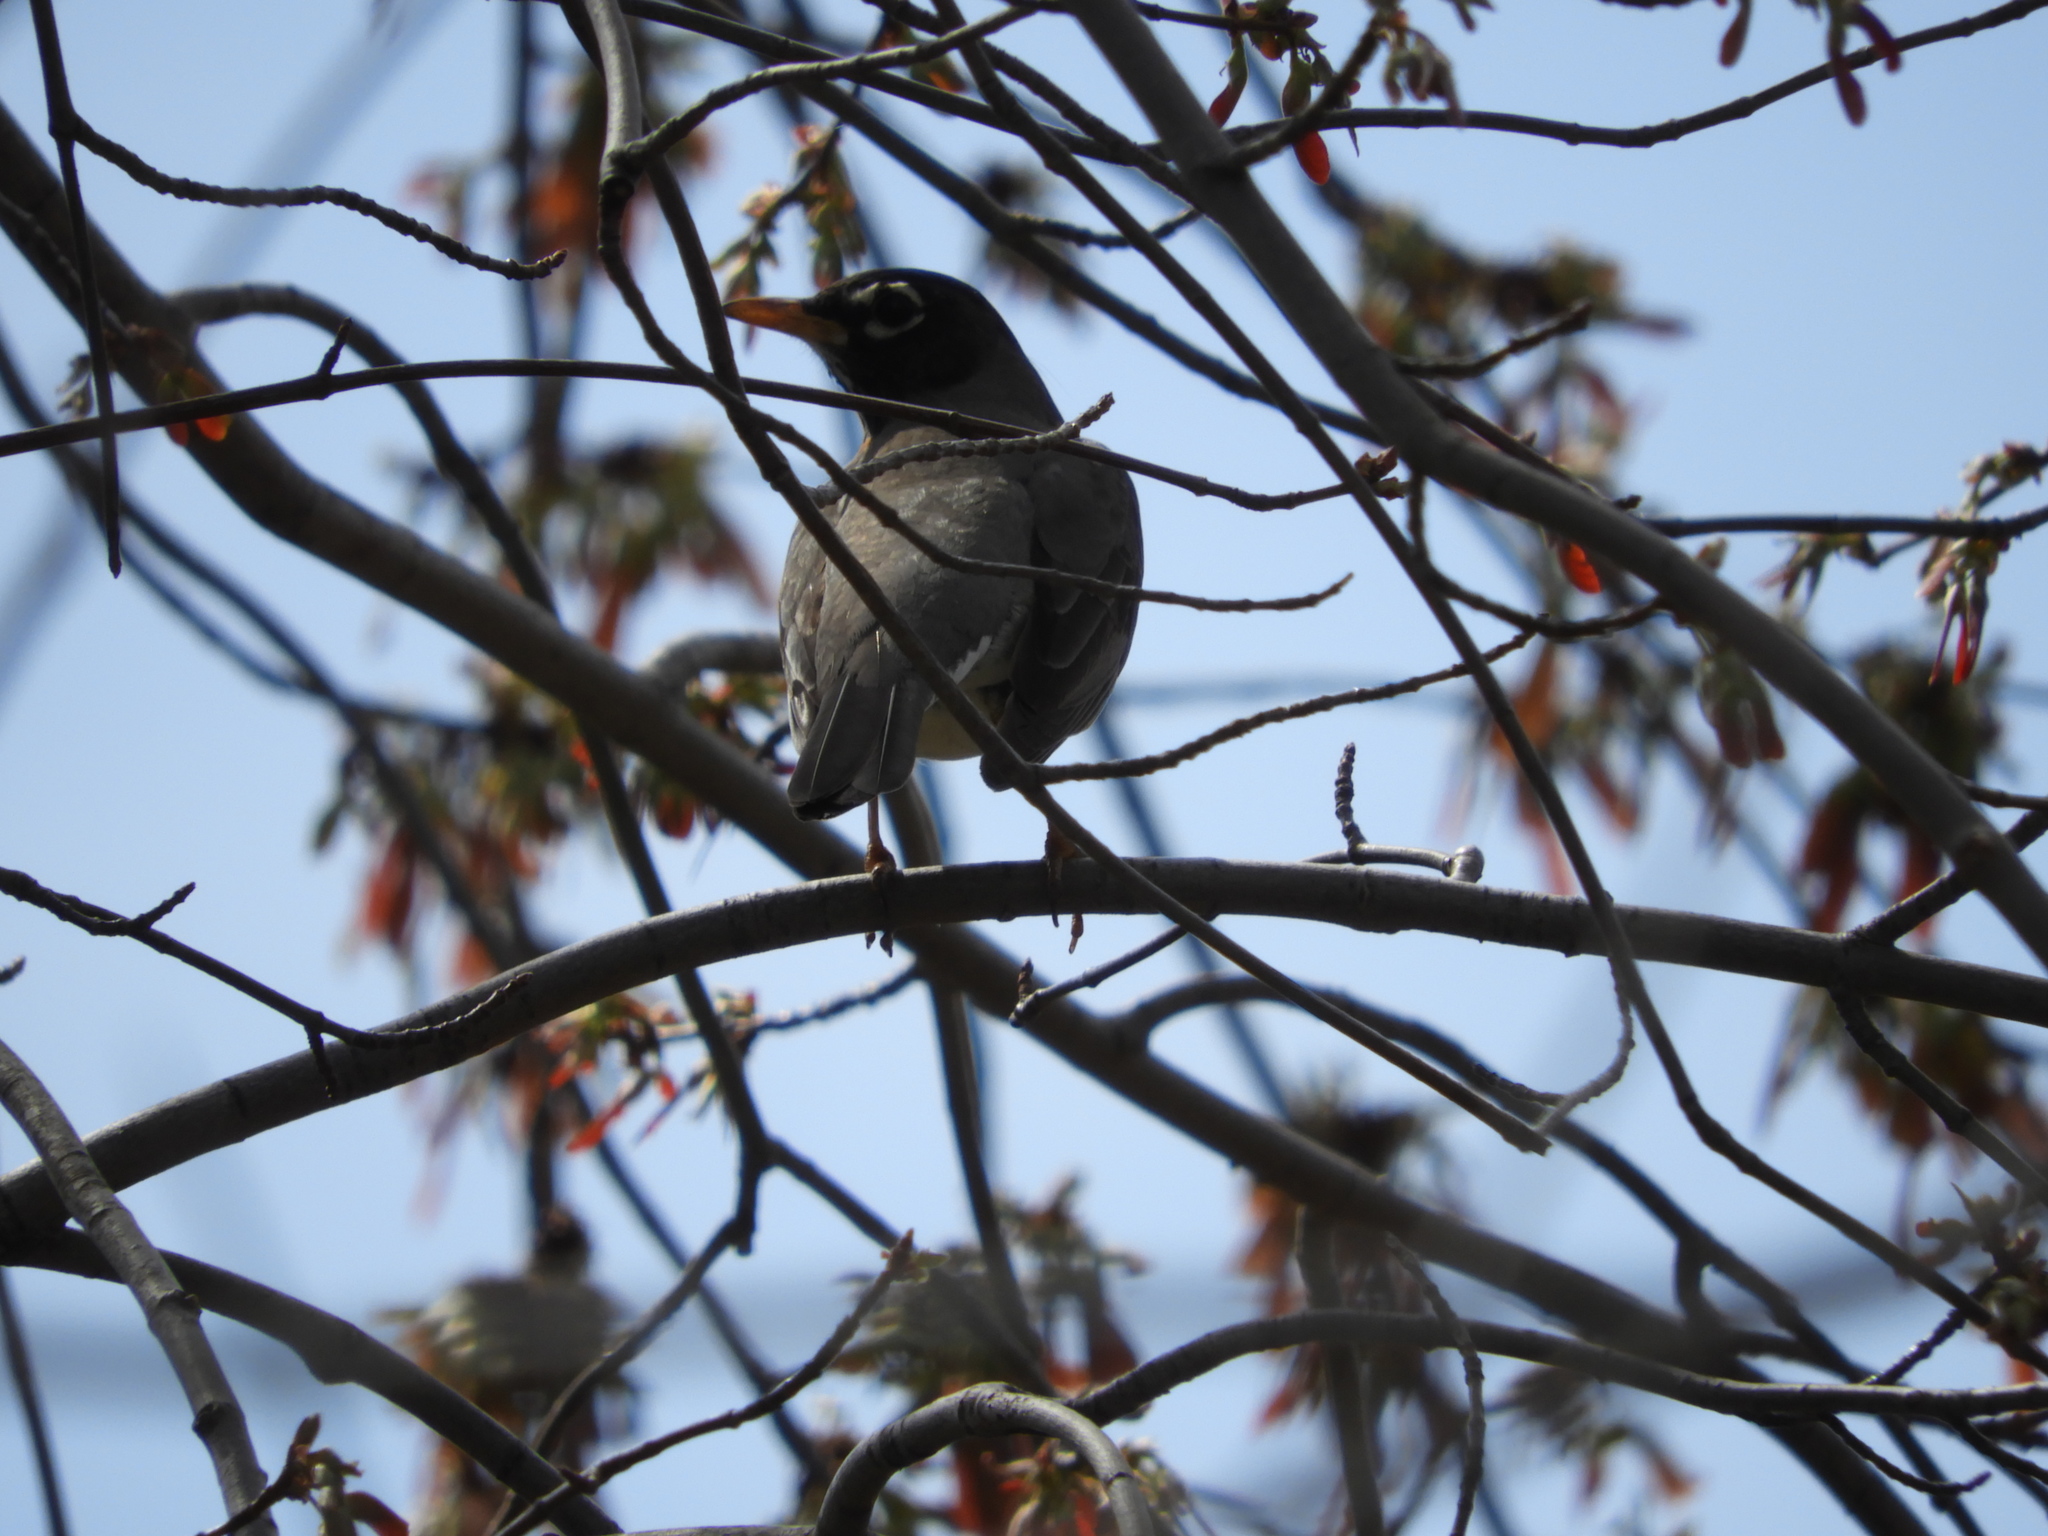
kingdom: Animalia
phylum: Chordata
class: Aves
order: Passeriformes
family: Turdidae
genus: Turdus
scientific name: Turdus migratorius
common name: American robin
